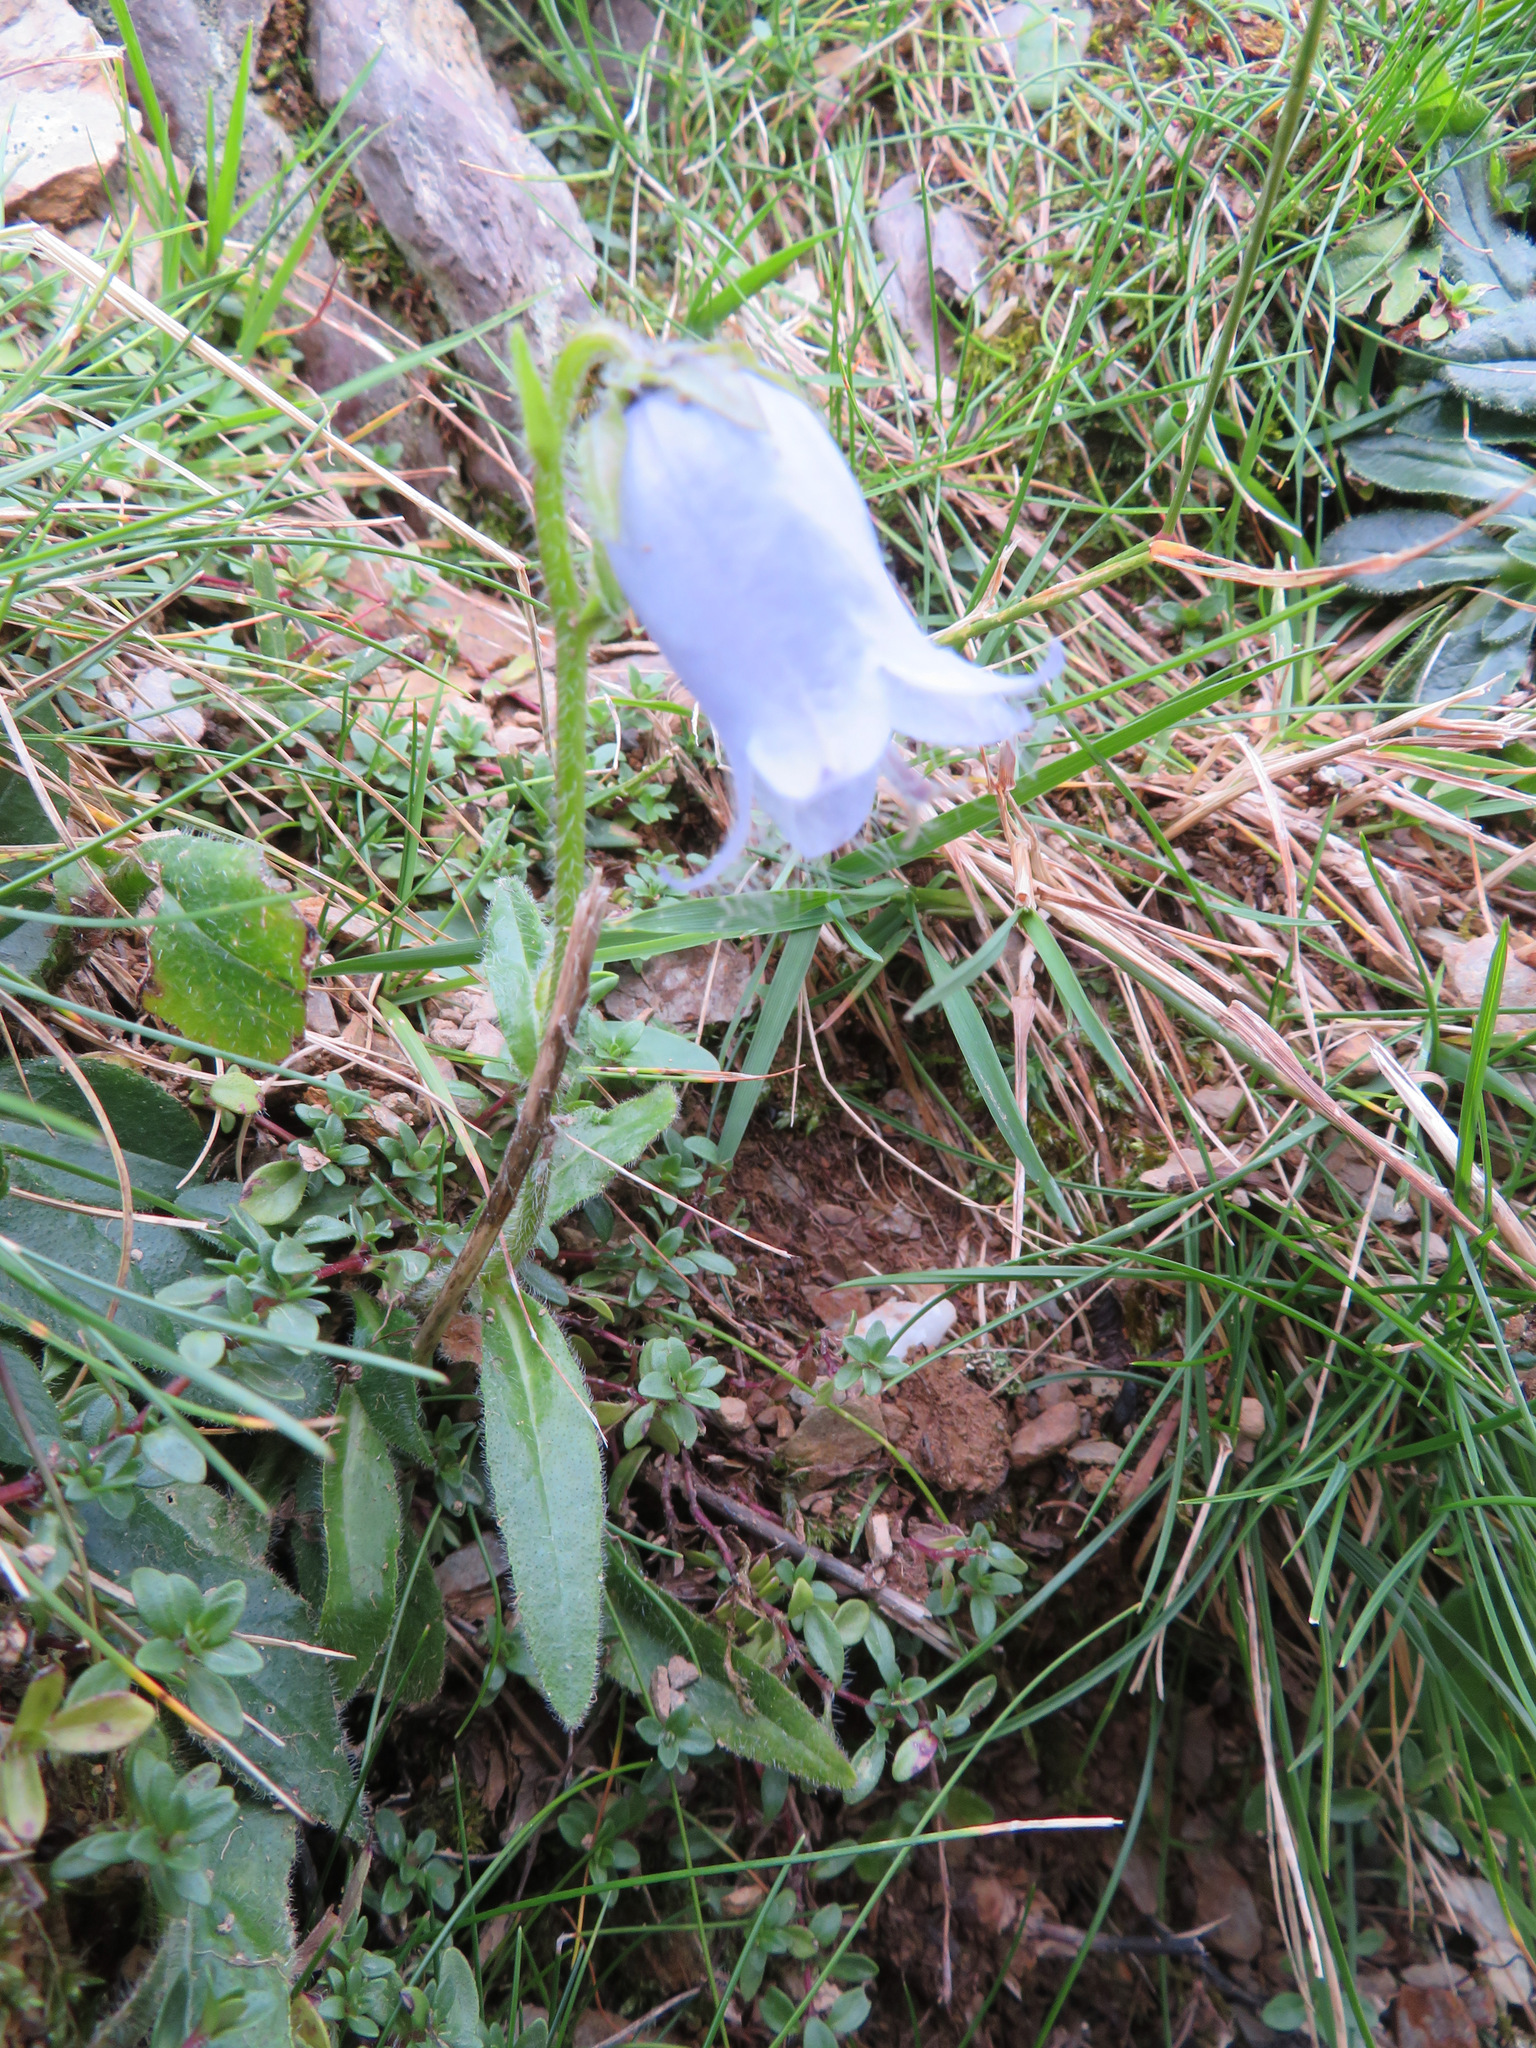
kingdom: Plantae
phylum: Tracheophyta
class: Magnoliopsida
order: Asterales
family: Campanulaceae
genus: Campanula
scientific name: Campanula barbata
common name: Bearded bellflower
